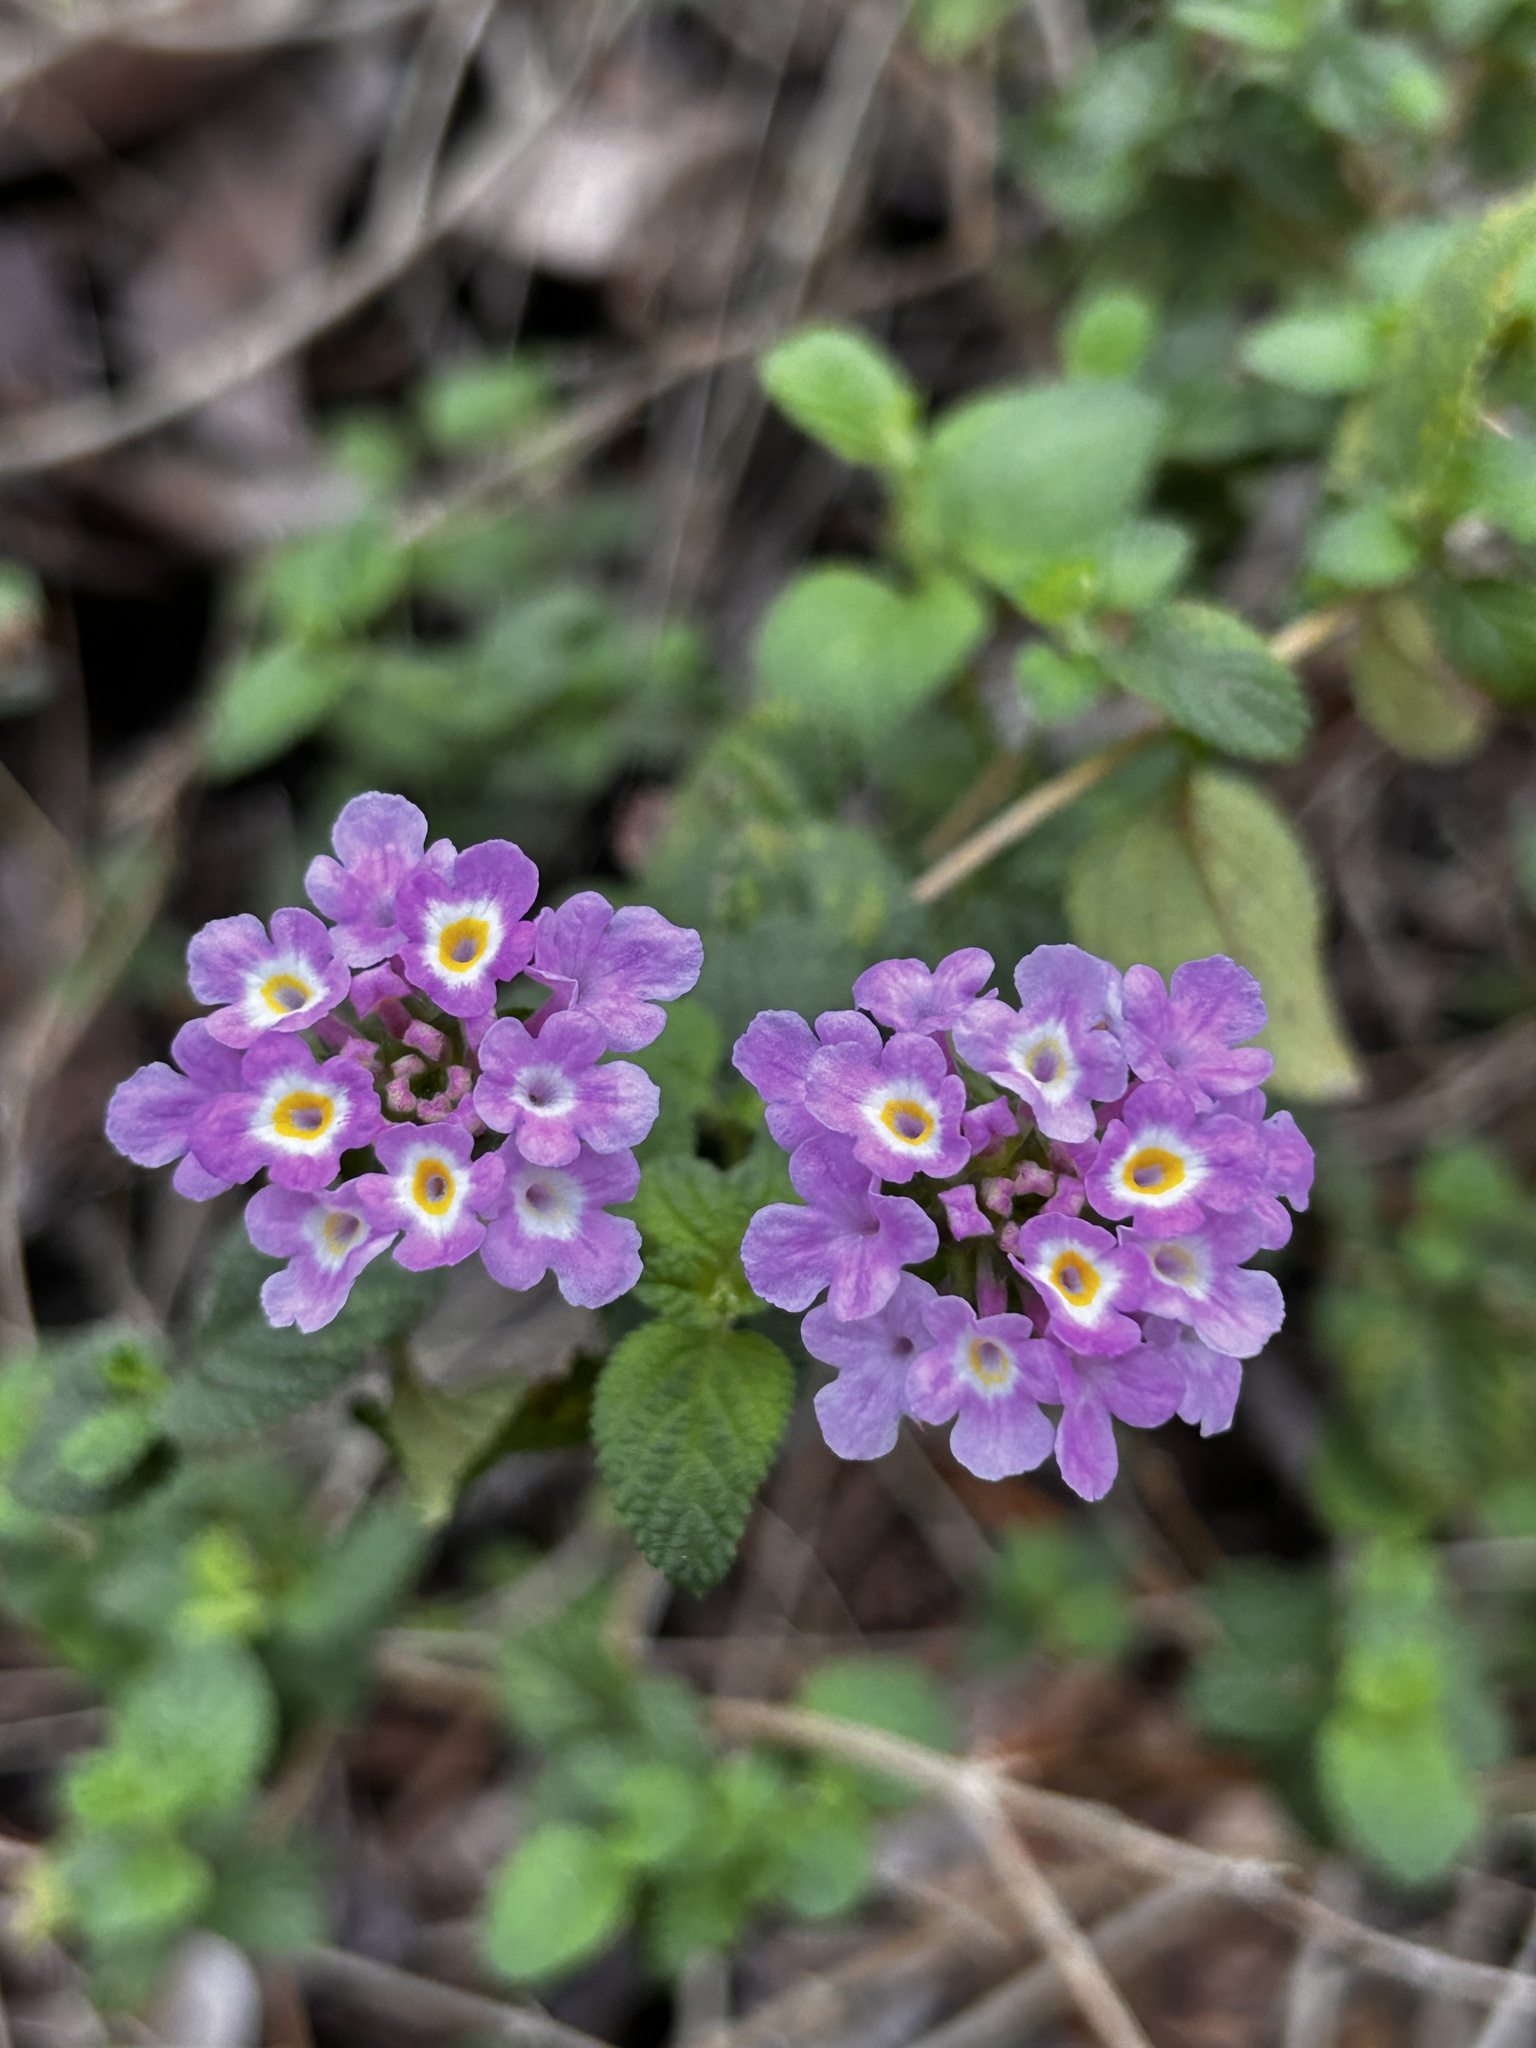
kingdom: Plantae
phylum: Tracheophyta
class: Magnoliopsida
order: Lamiales
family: Verbenaceae
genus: Lantana
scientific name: Lantana montevidensis
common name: Trailing shrubverbena
